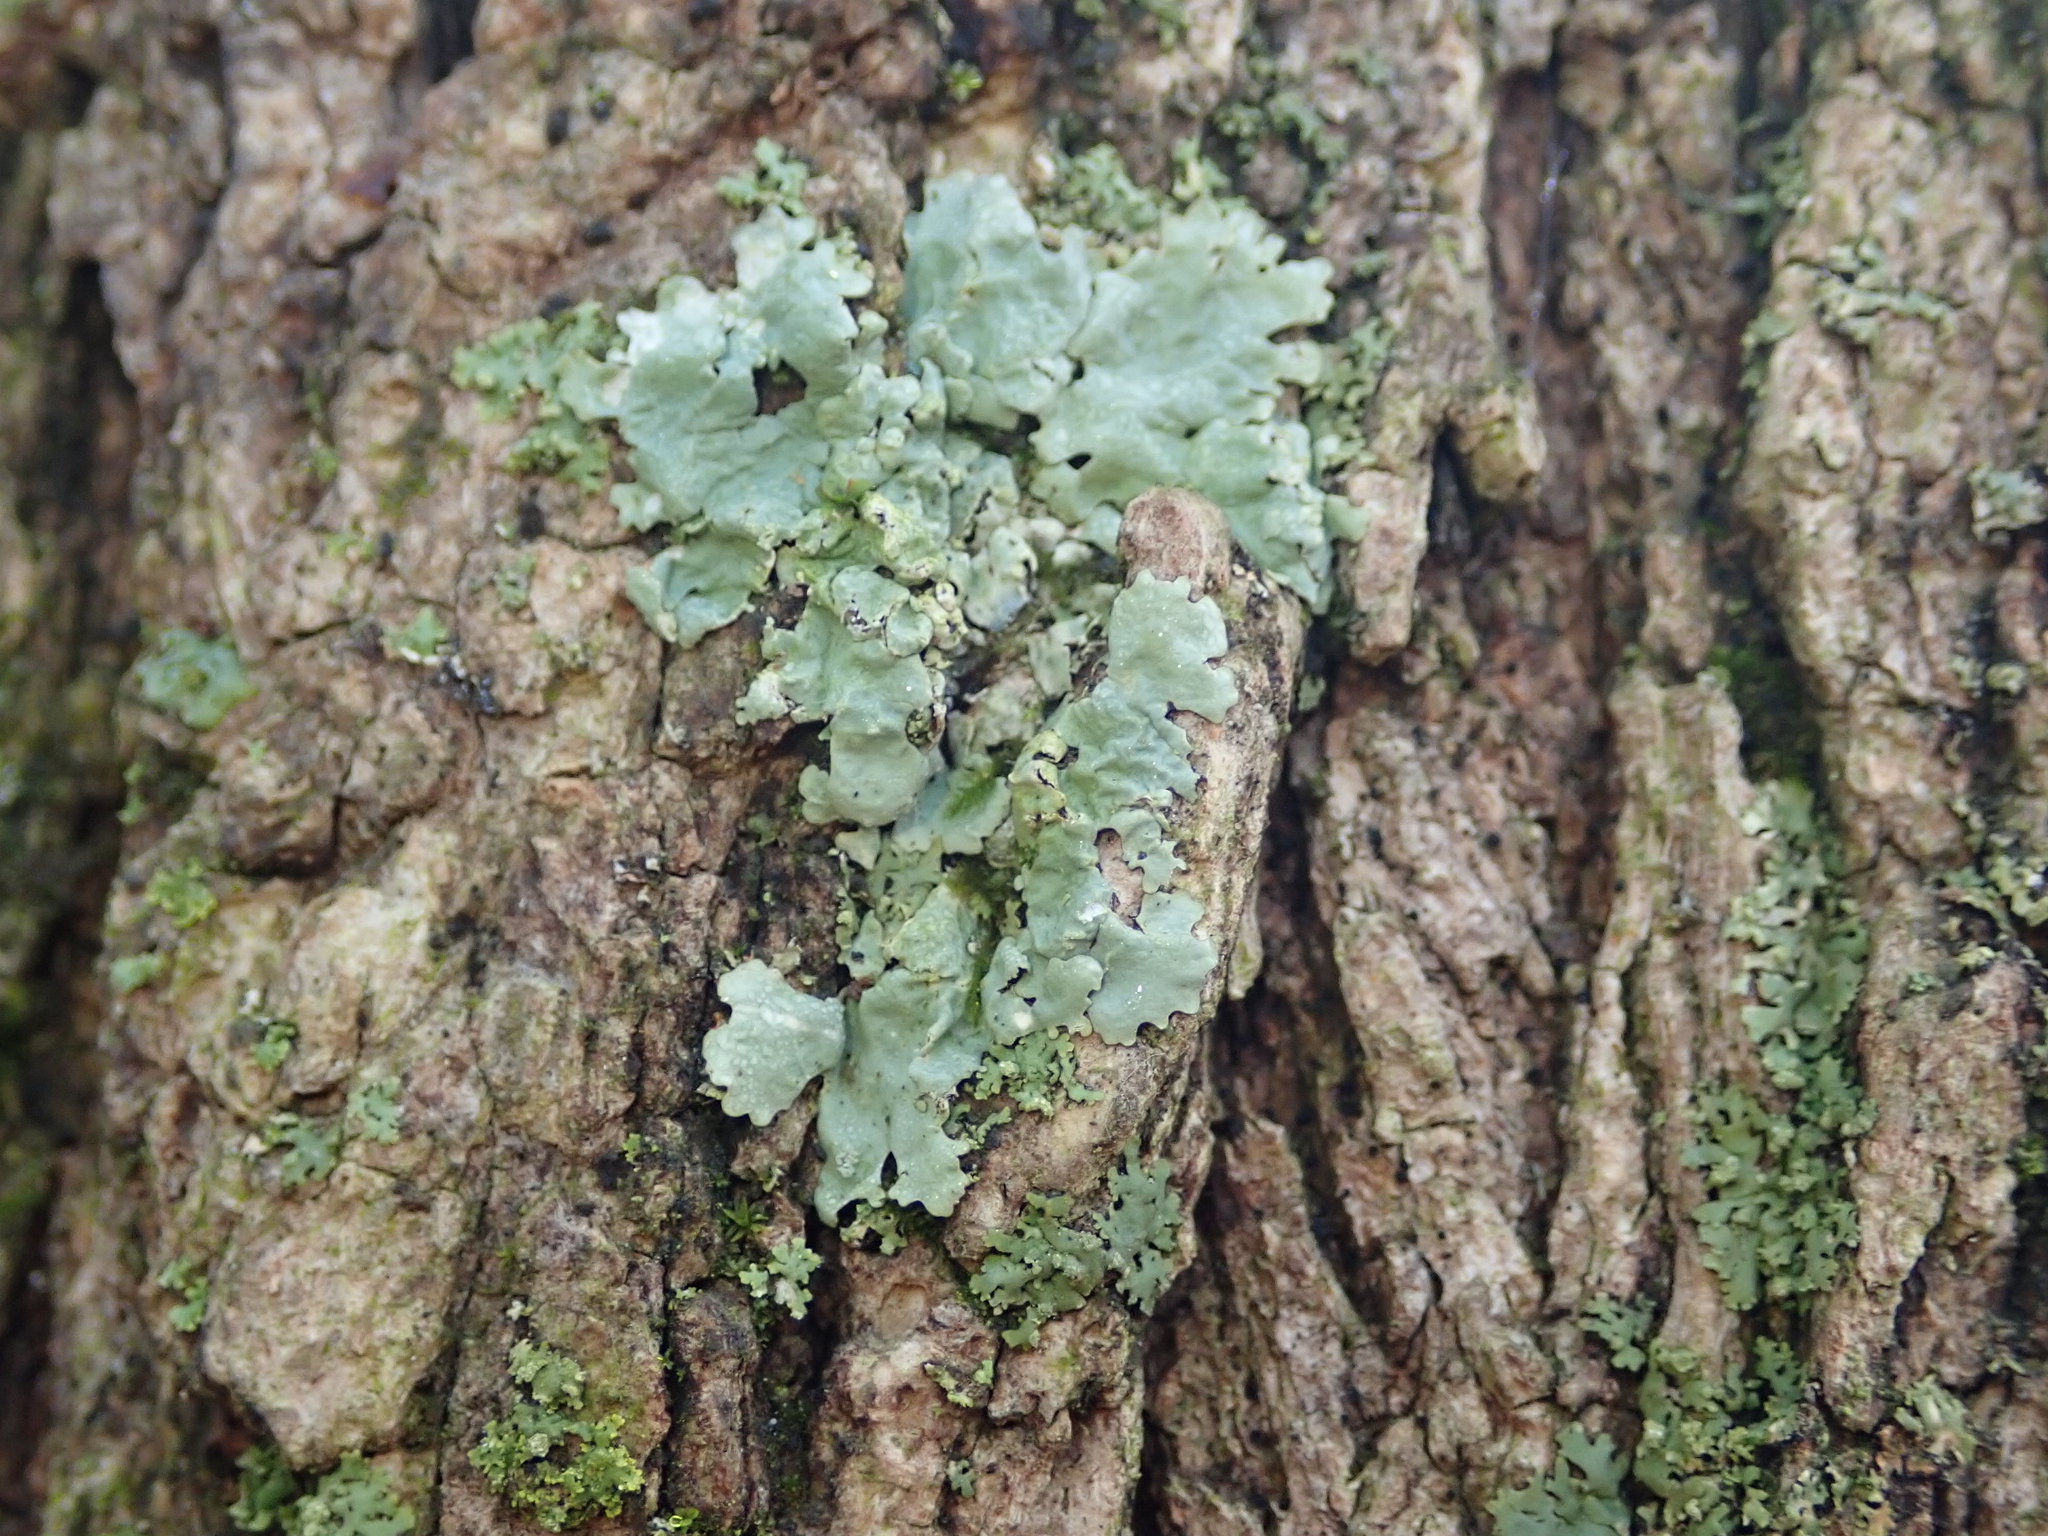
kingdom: Fungi
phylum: Ascomycota
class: Lecanoromycetes
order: Lecanorales
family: Parmeliaceae
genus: Myelochroa
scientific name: Myelochroa aurulenta
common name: Powdery axil-bristle lichen
